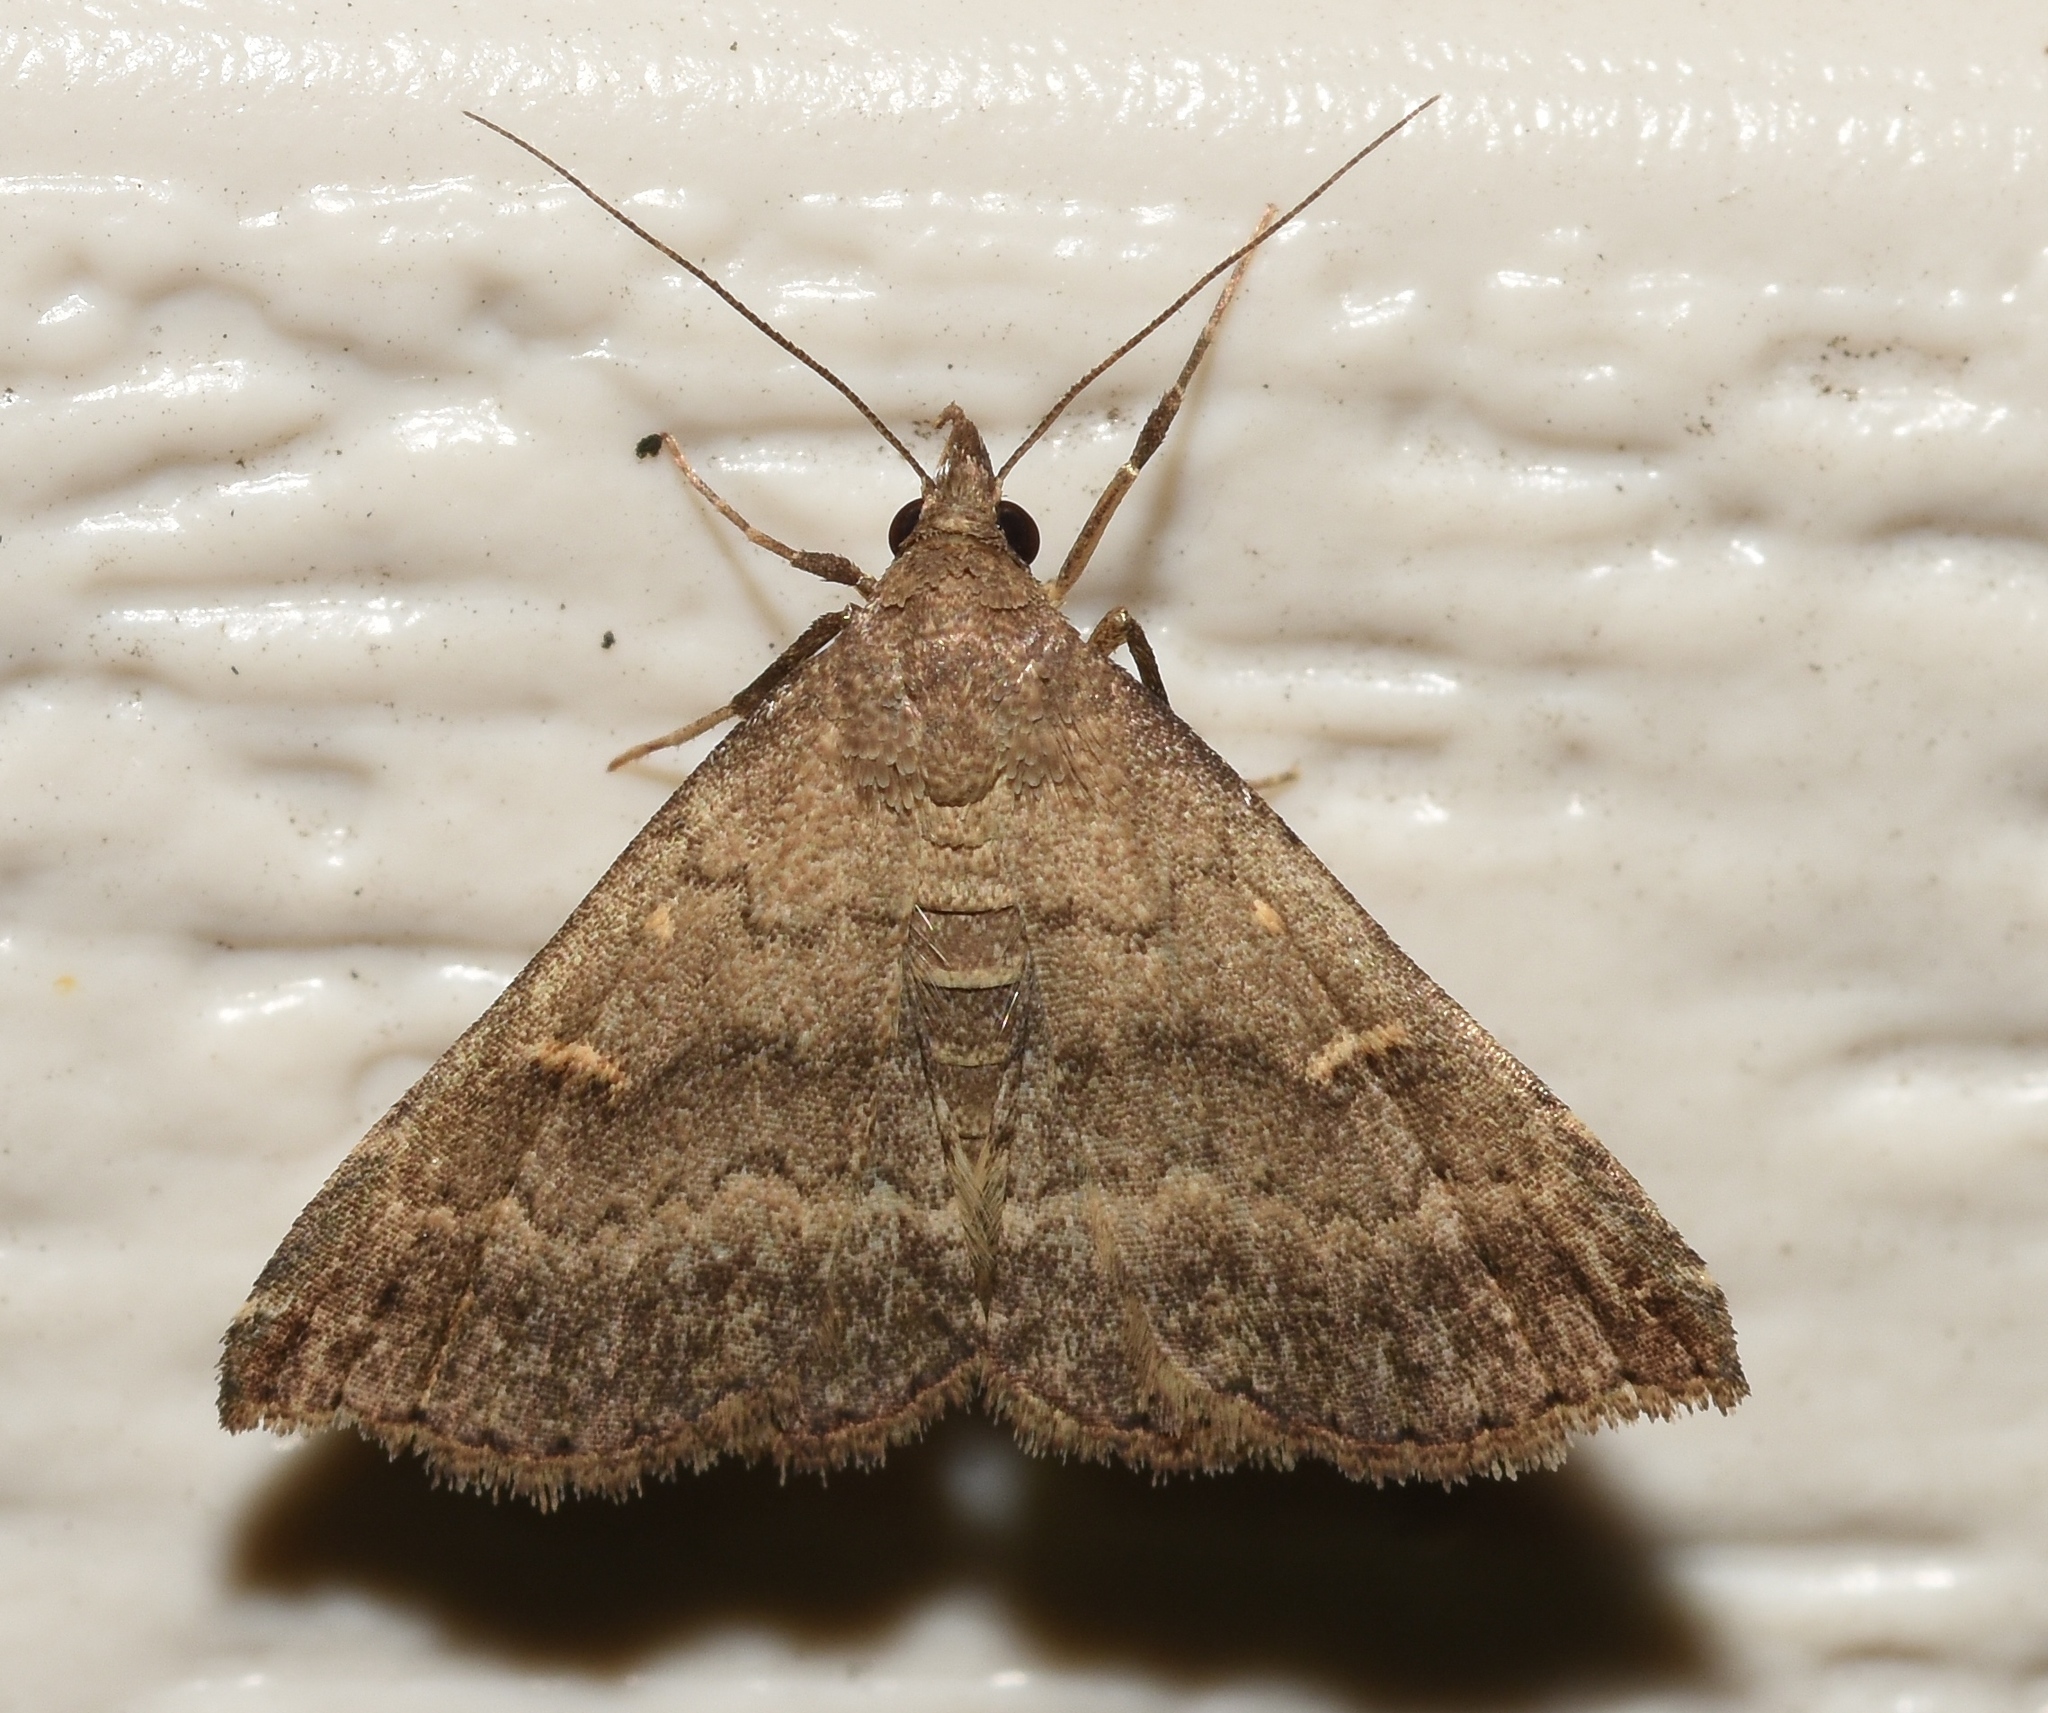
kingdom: Animalia
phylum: Arthropoda
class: Insecta
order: Lepidoptera
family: Erebidae
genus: Tetanolita
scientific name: Tetanolita floridana
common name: Florida tetanolita moth
